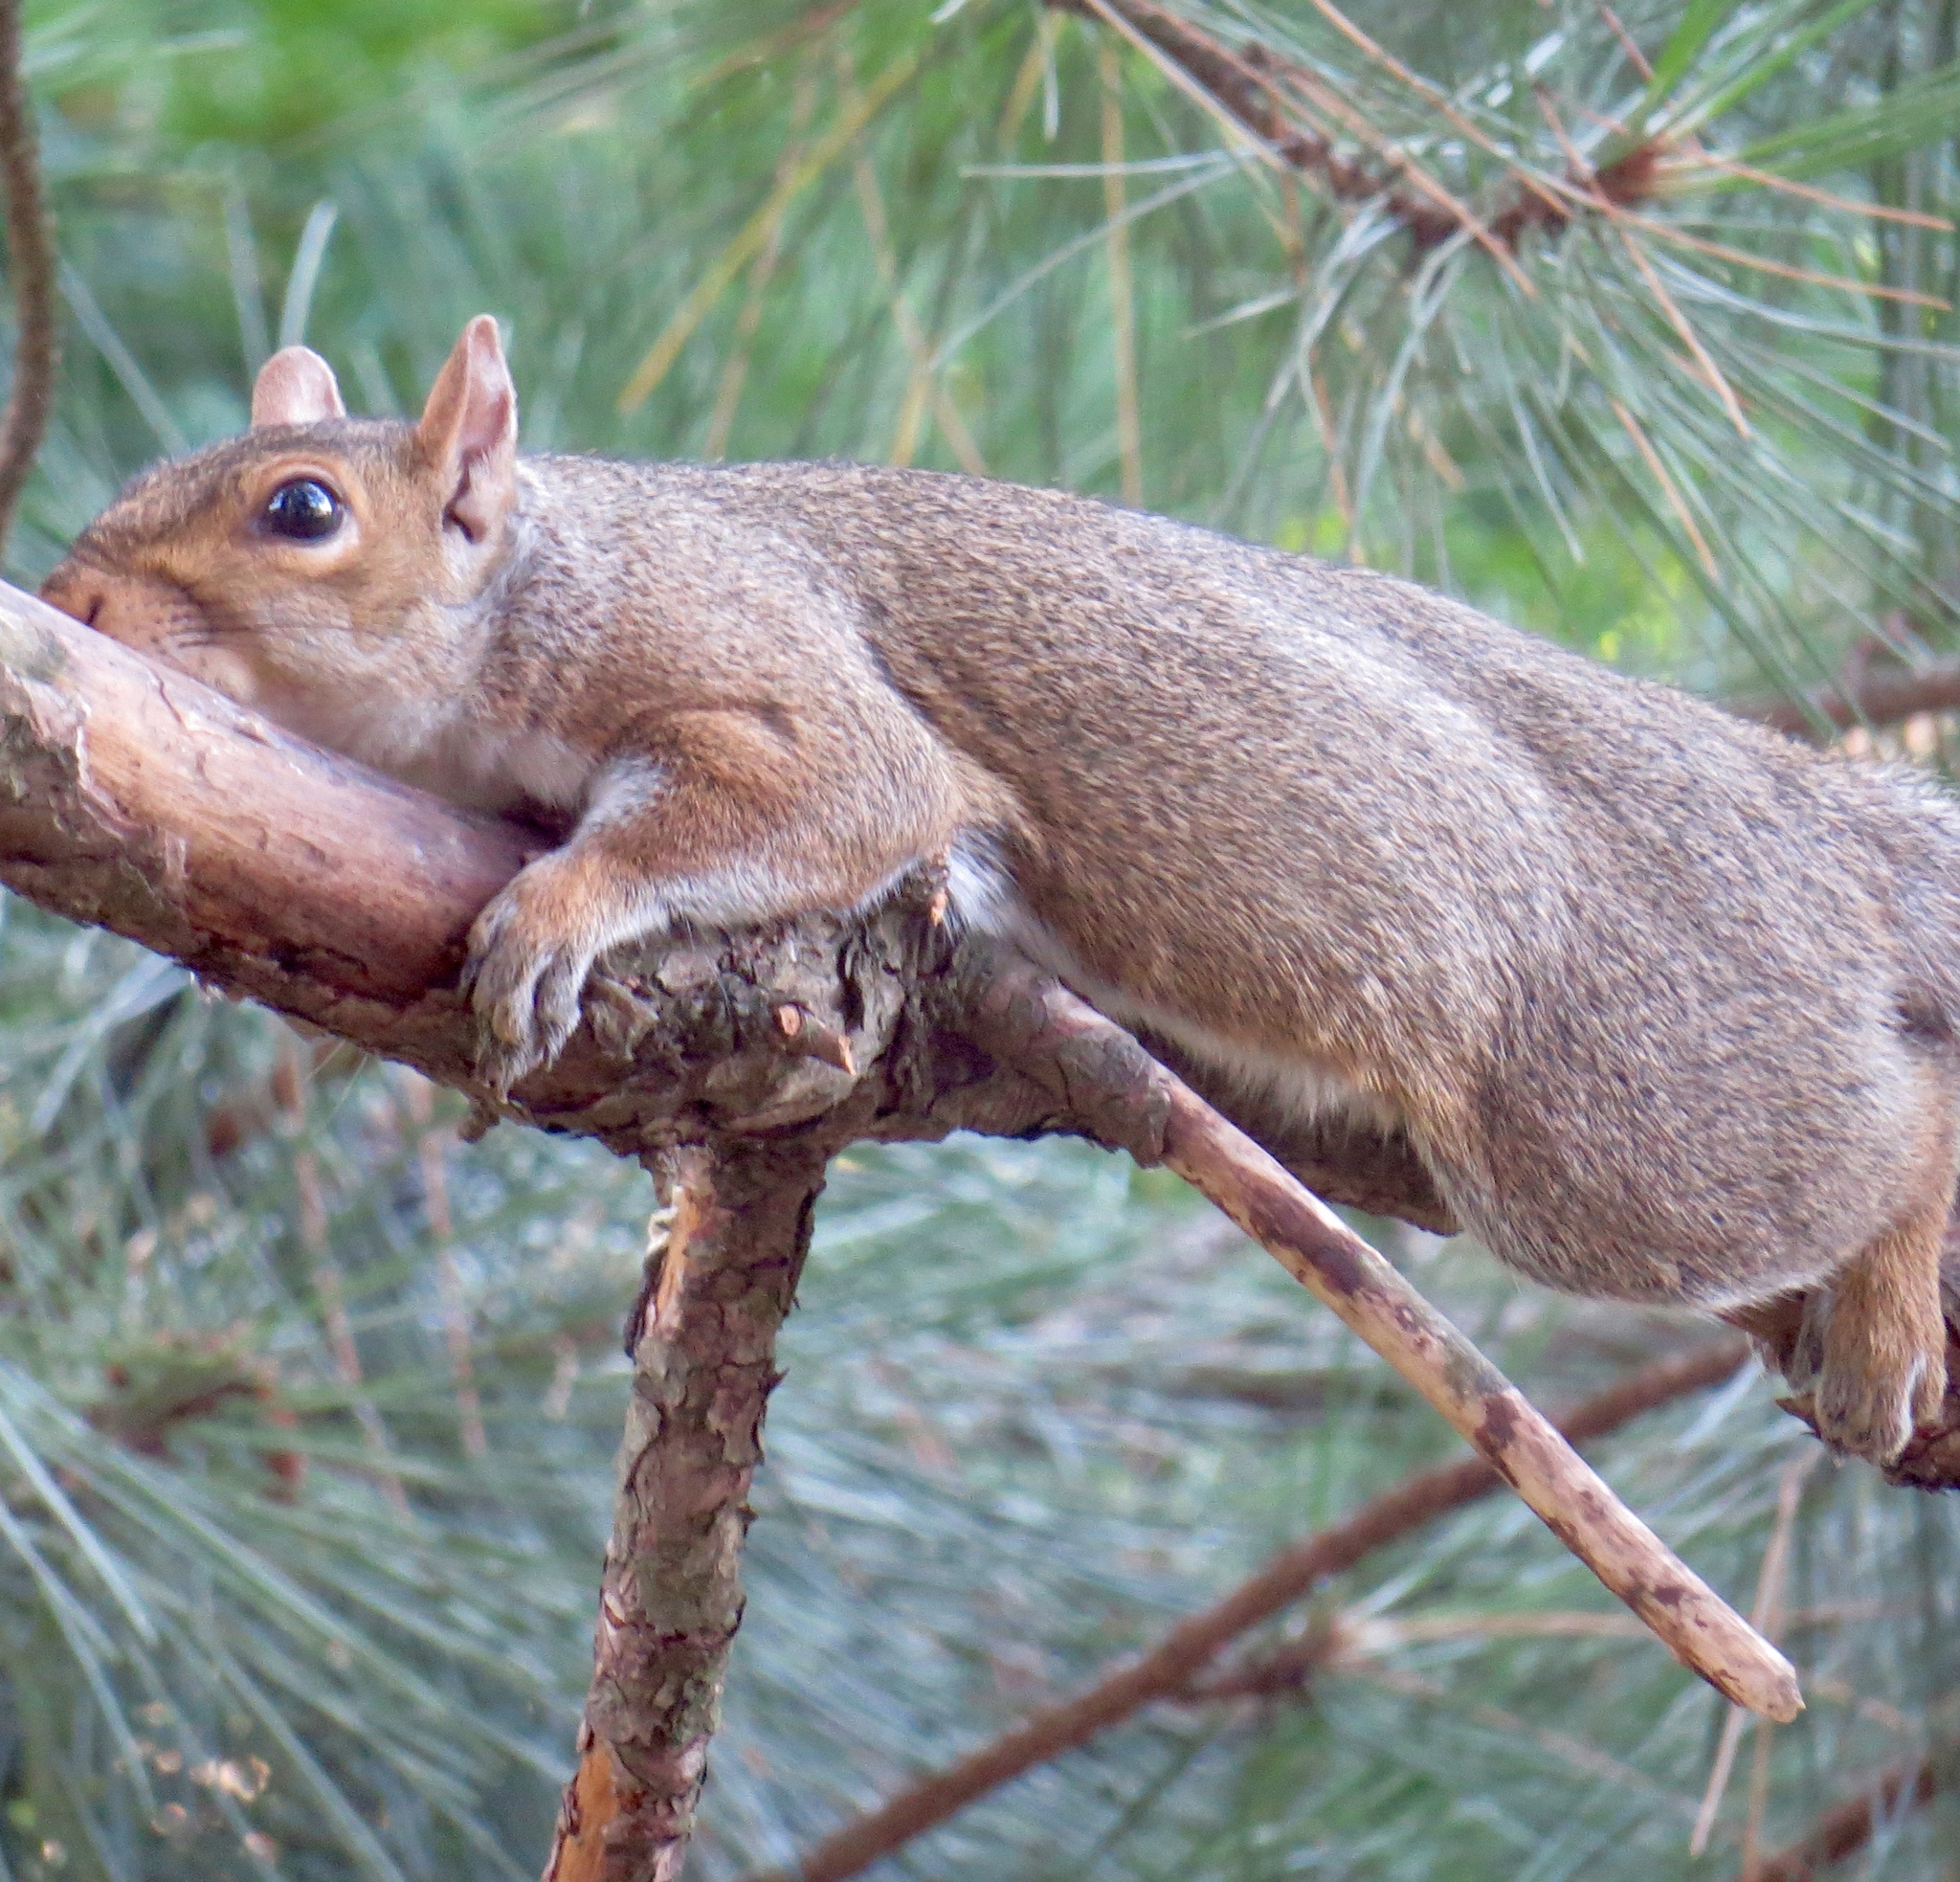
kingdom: Animalia
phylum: Chordata
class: Mammalia
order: Rodentia
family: Sciuridae
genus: Sciurus
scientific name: Sciurus carolinensis
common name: Eastern gray squirrel
